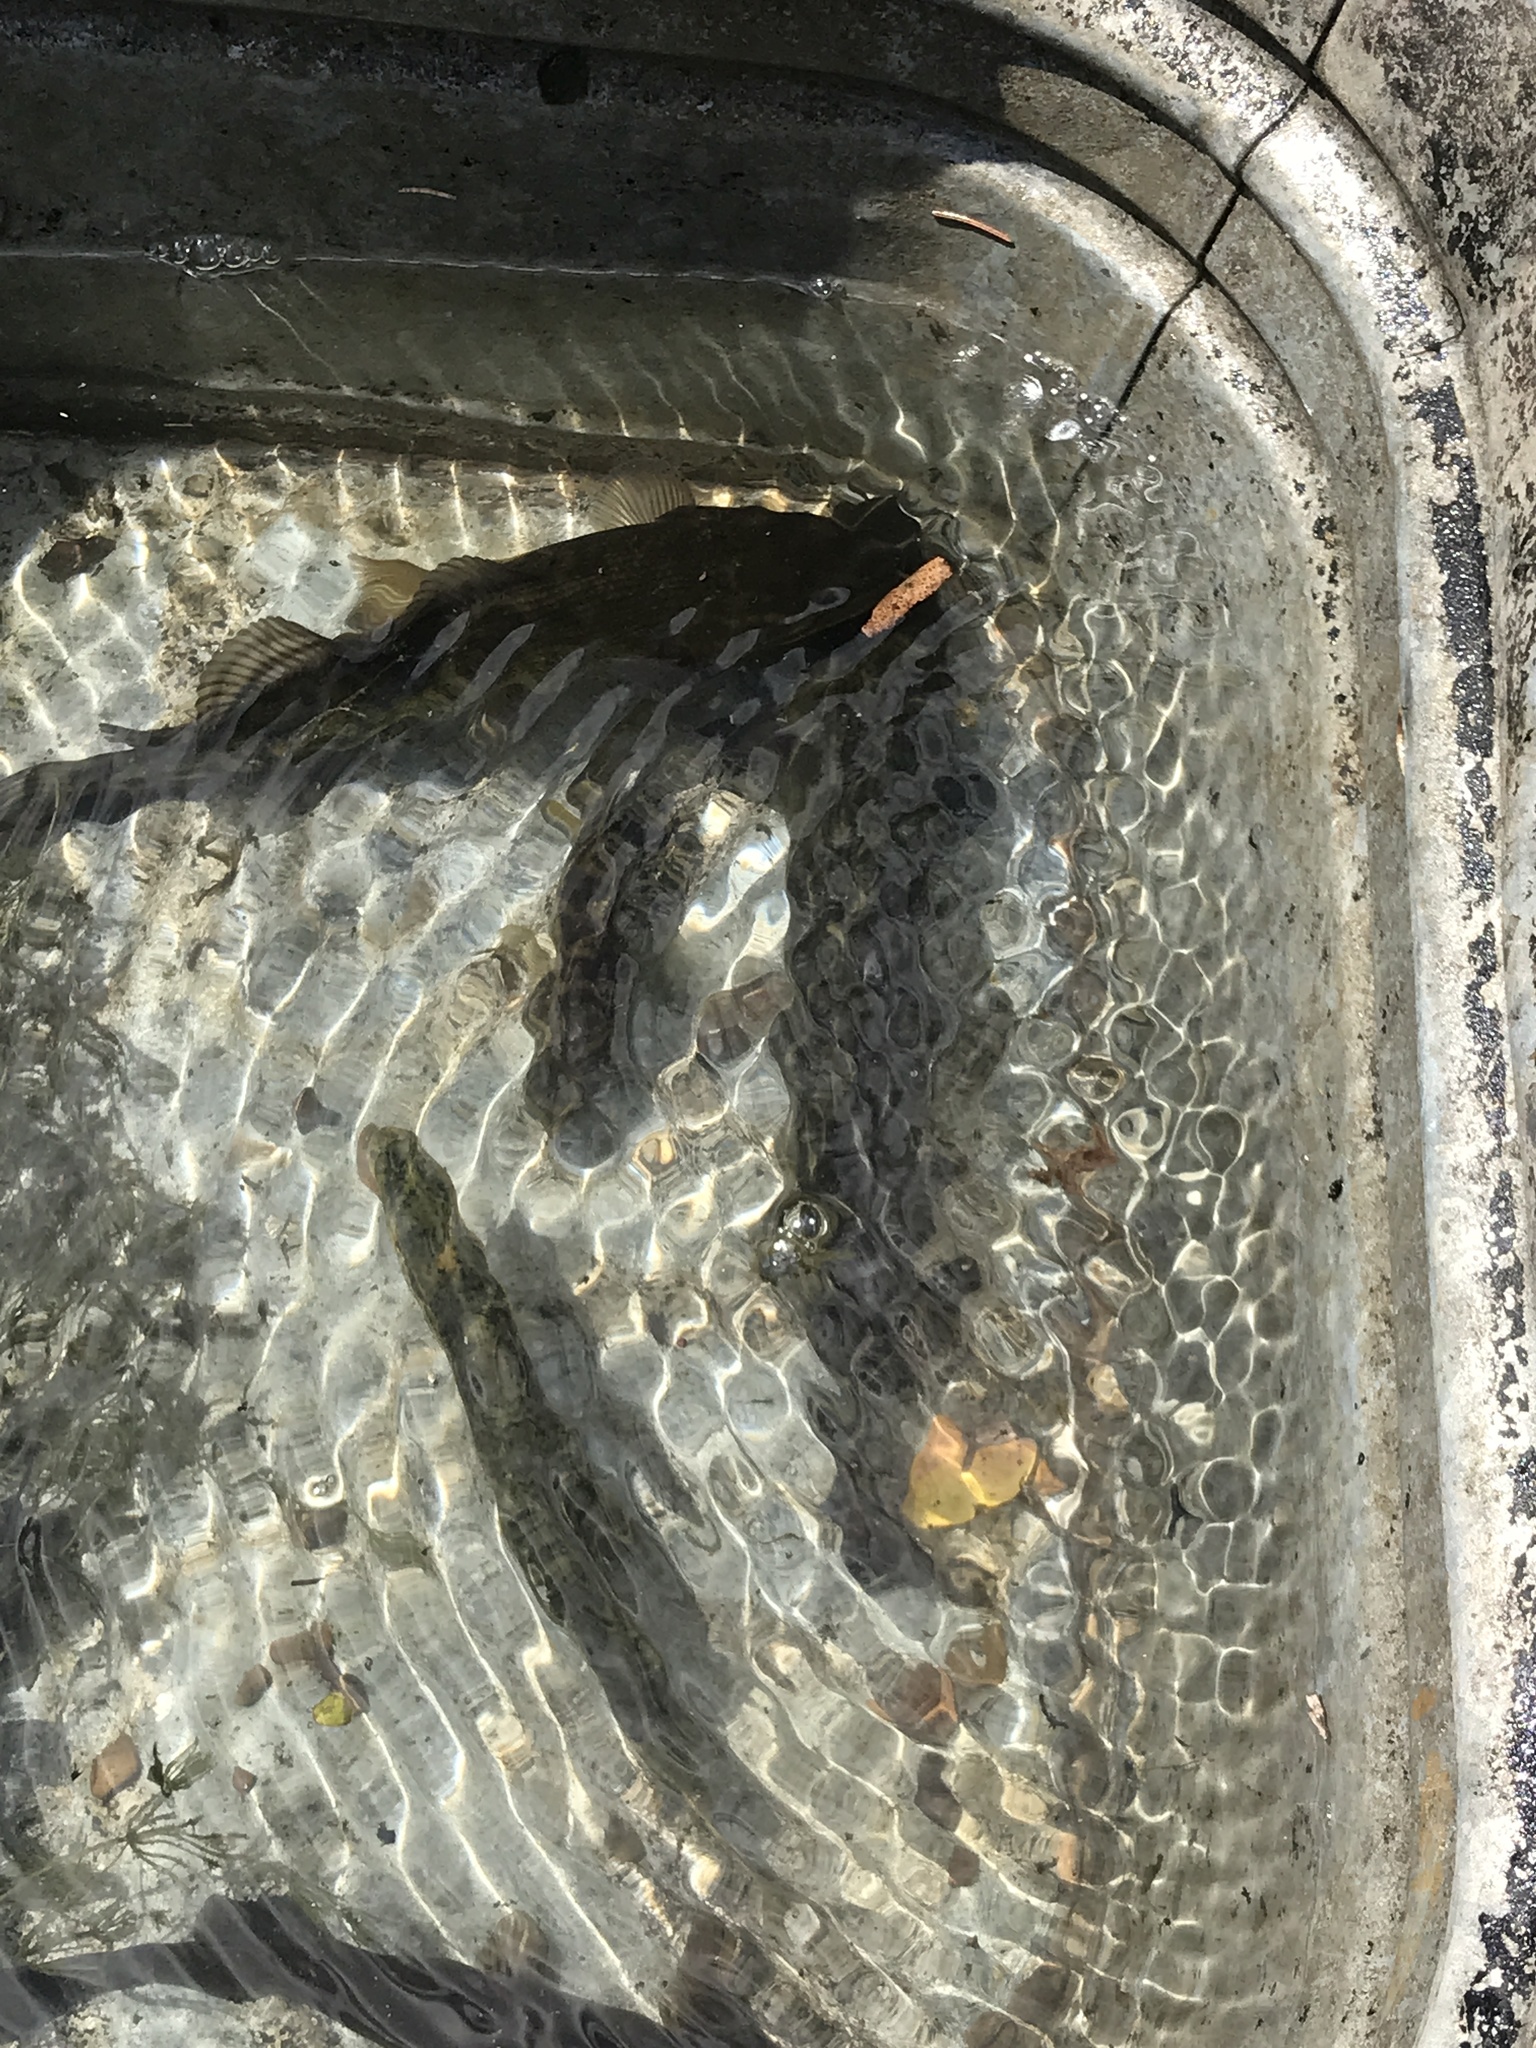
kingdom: Animalia
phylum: Chordata
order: Amiiformes
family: Amiidae
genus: Amia
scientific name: Amia calva
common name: Bowfin
